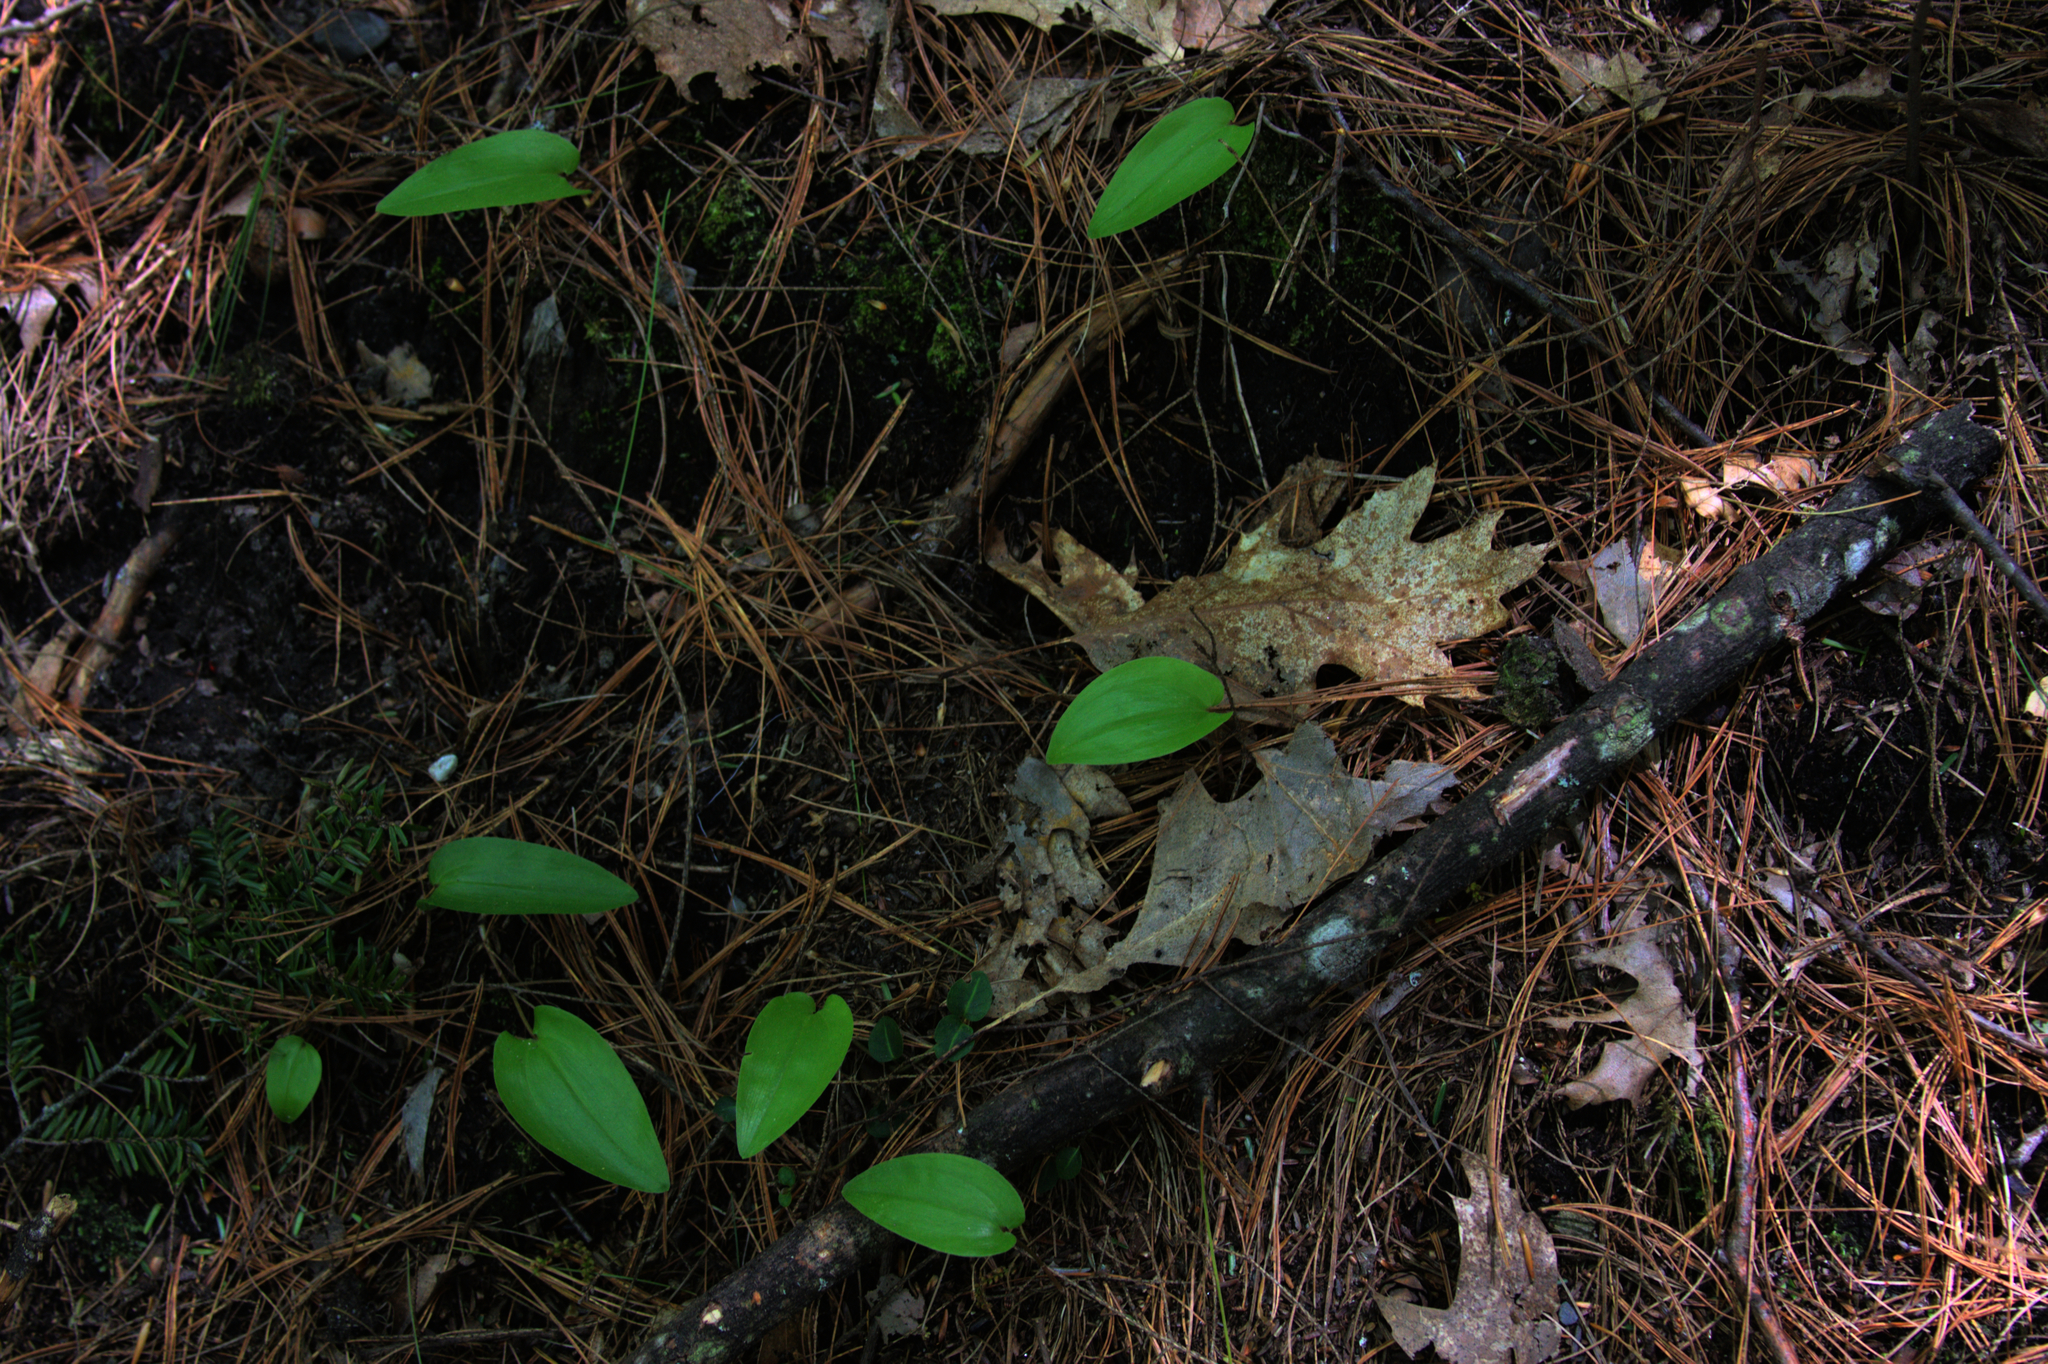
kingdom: Plantae
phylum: Tracheophyta
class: Liliopsida
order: Asparagales
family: Asparagaceae
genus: Maianthemum
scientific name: Maianthemum canadense
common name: False lily-of-the-valley
